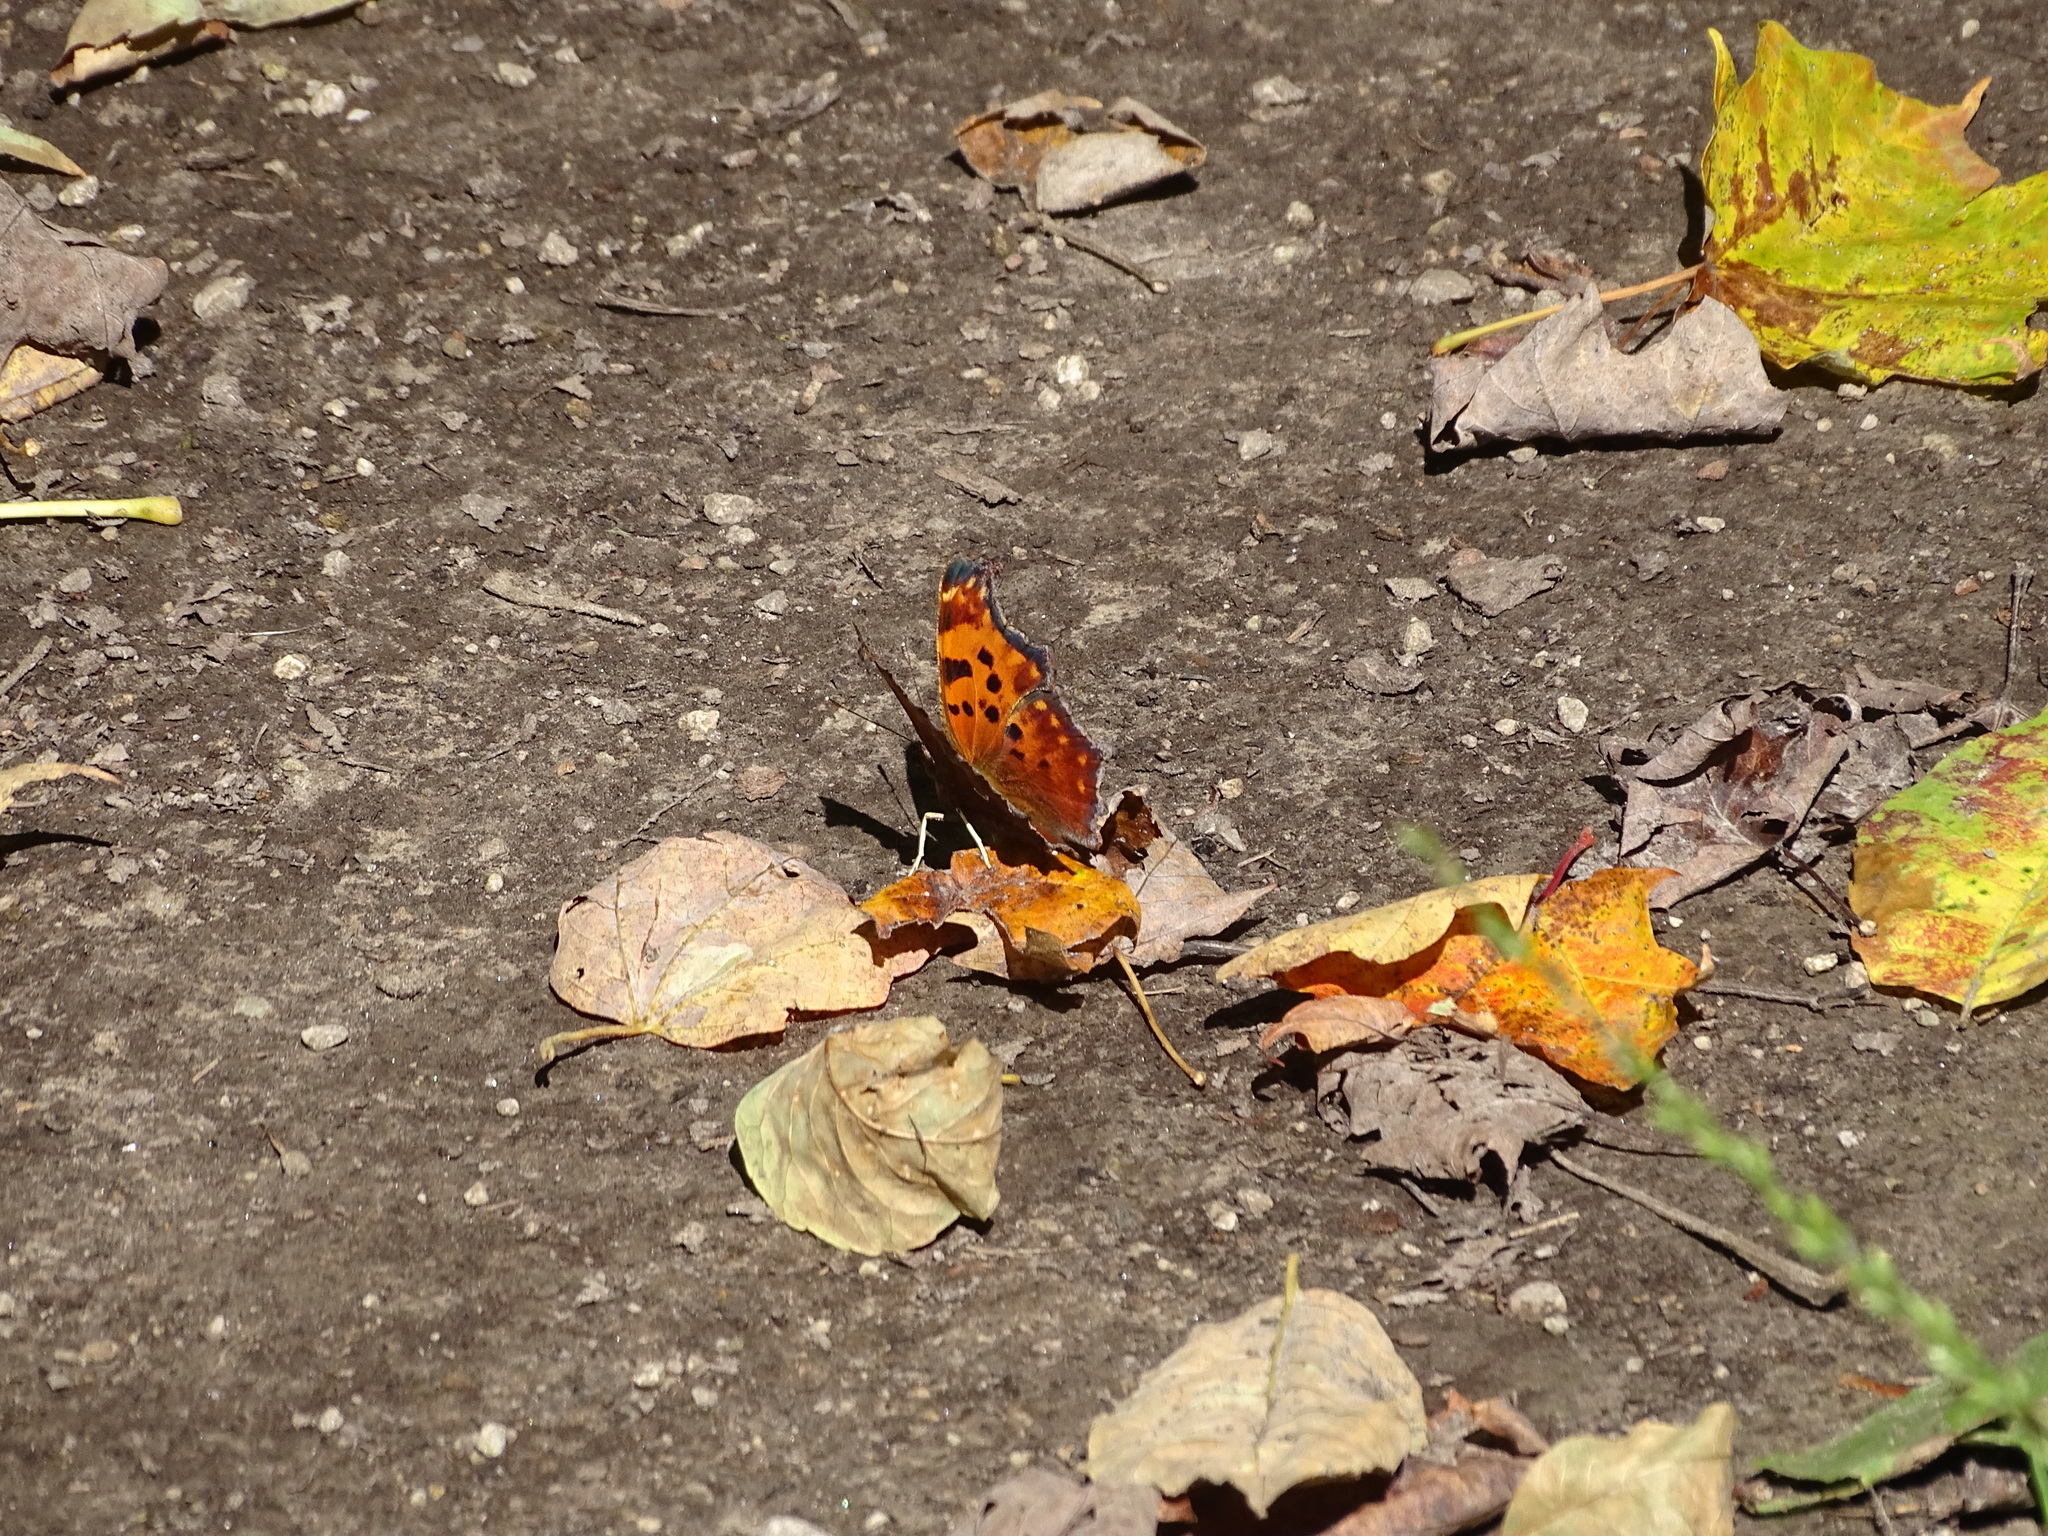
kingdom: Animalia
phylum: Arthropoda
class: Insecta
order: Lepidoptera
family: Nymphalidae
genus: Polygonia
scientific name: Polygonia comma
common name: Eastern comma
